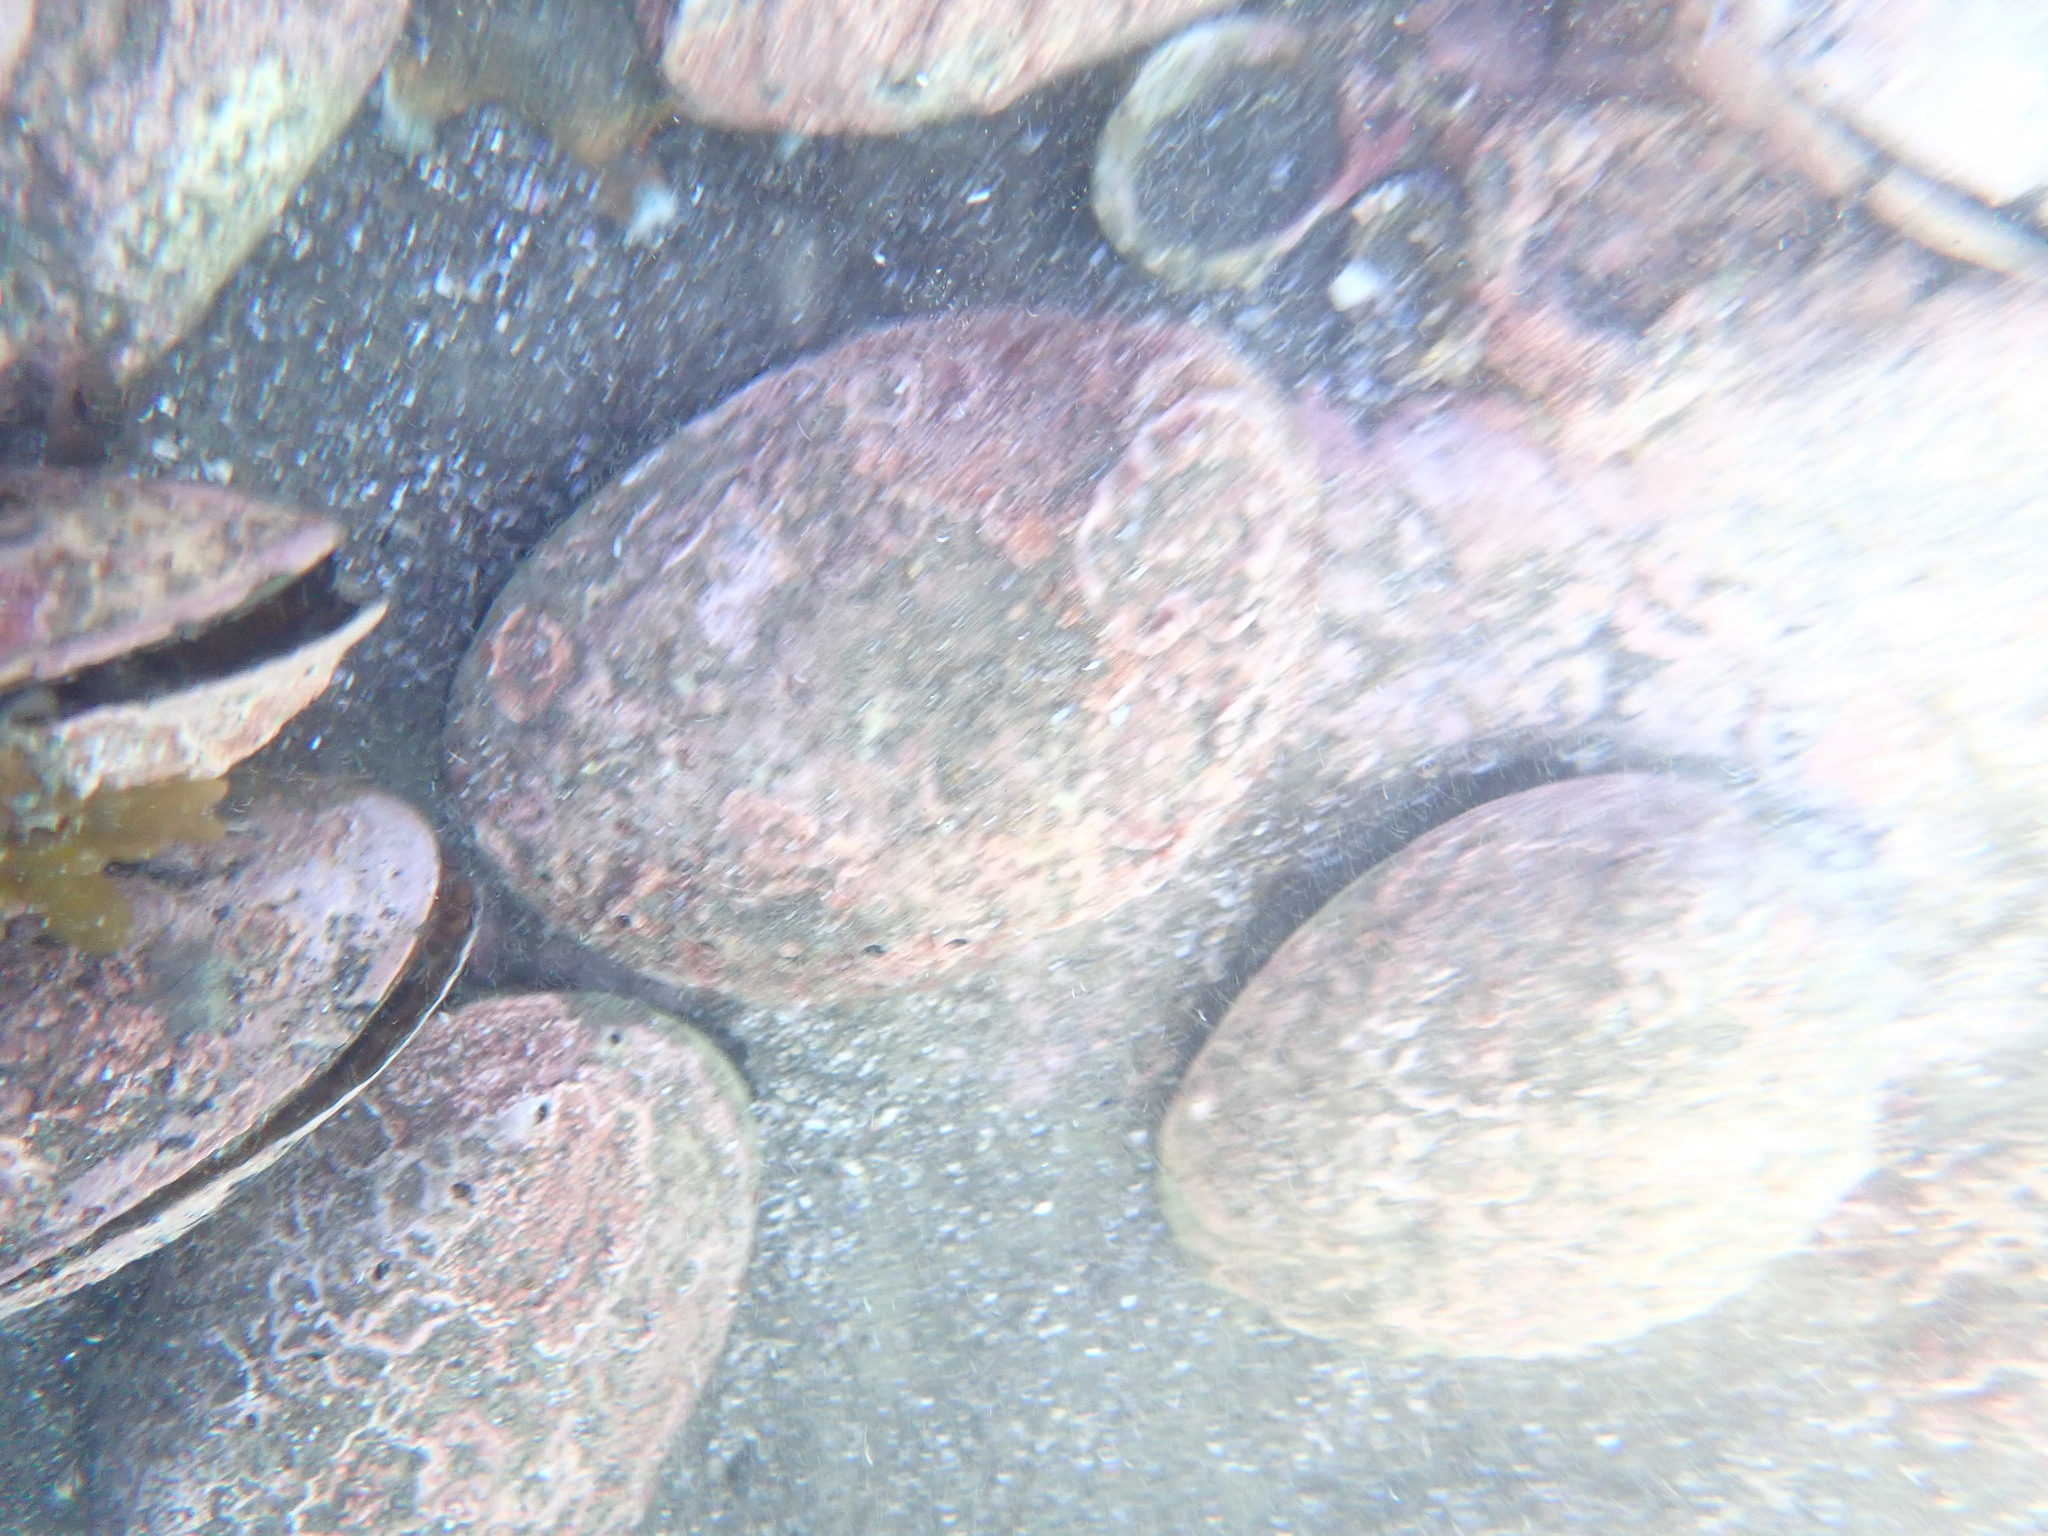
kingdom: Animalia
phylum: Mollusca
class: Gastropoda
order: Lepetellida
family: Haliotidae
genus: Haliotis
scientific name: Haliotis iris
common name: Abalone
